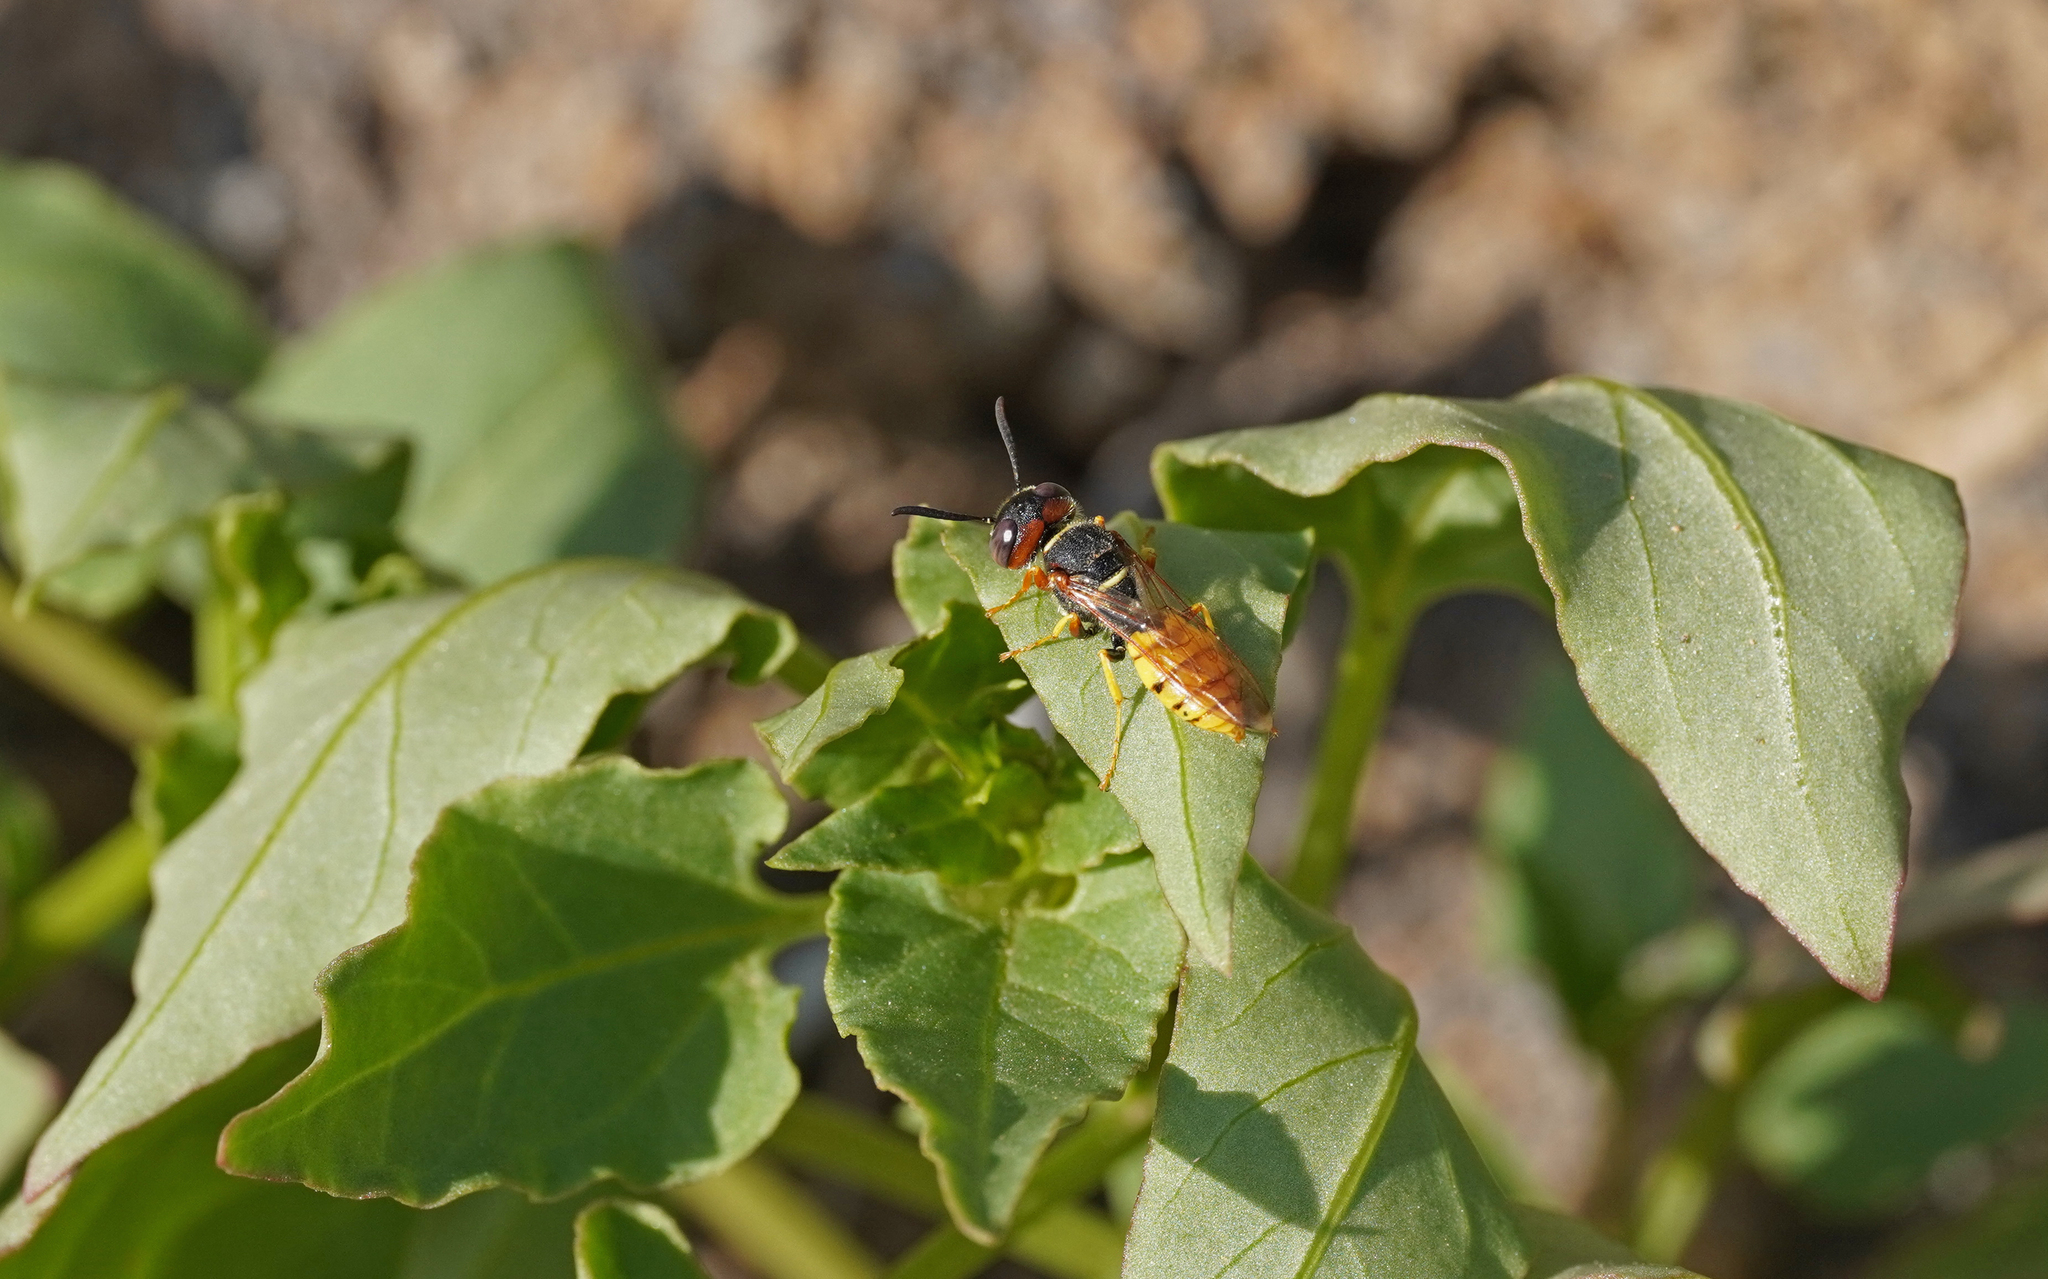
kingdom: Animalia
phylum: Arthropoda
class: Insecta
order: Hymenoptera
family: Crabronidae
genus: Philanthus
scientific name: Philanthus triangulum
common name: Bee wolf
